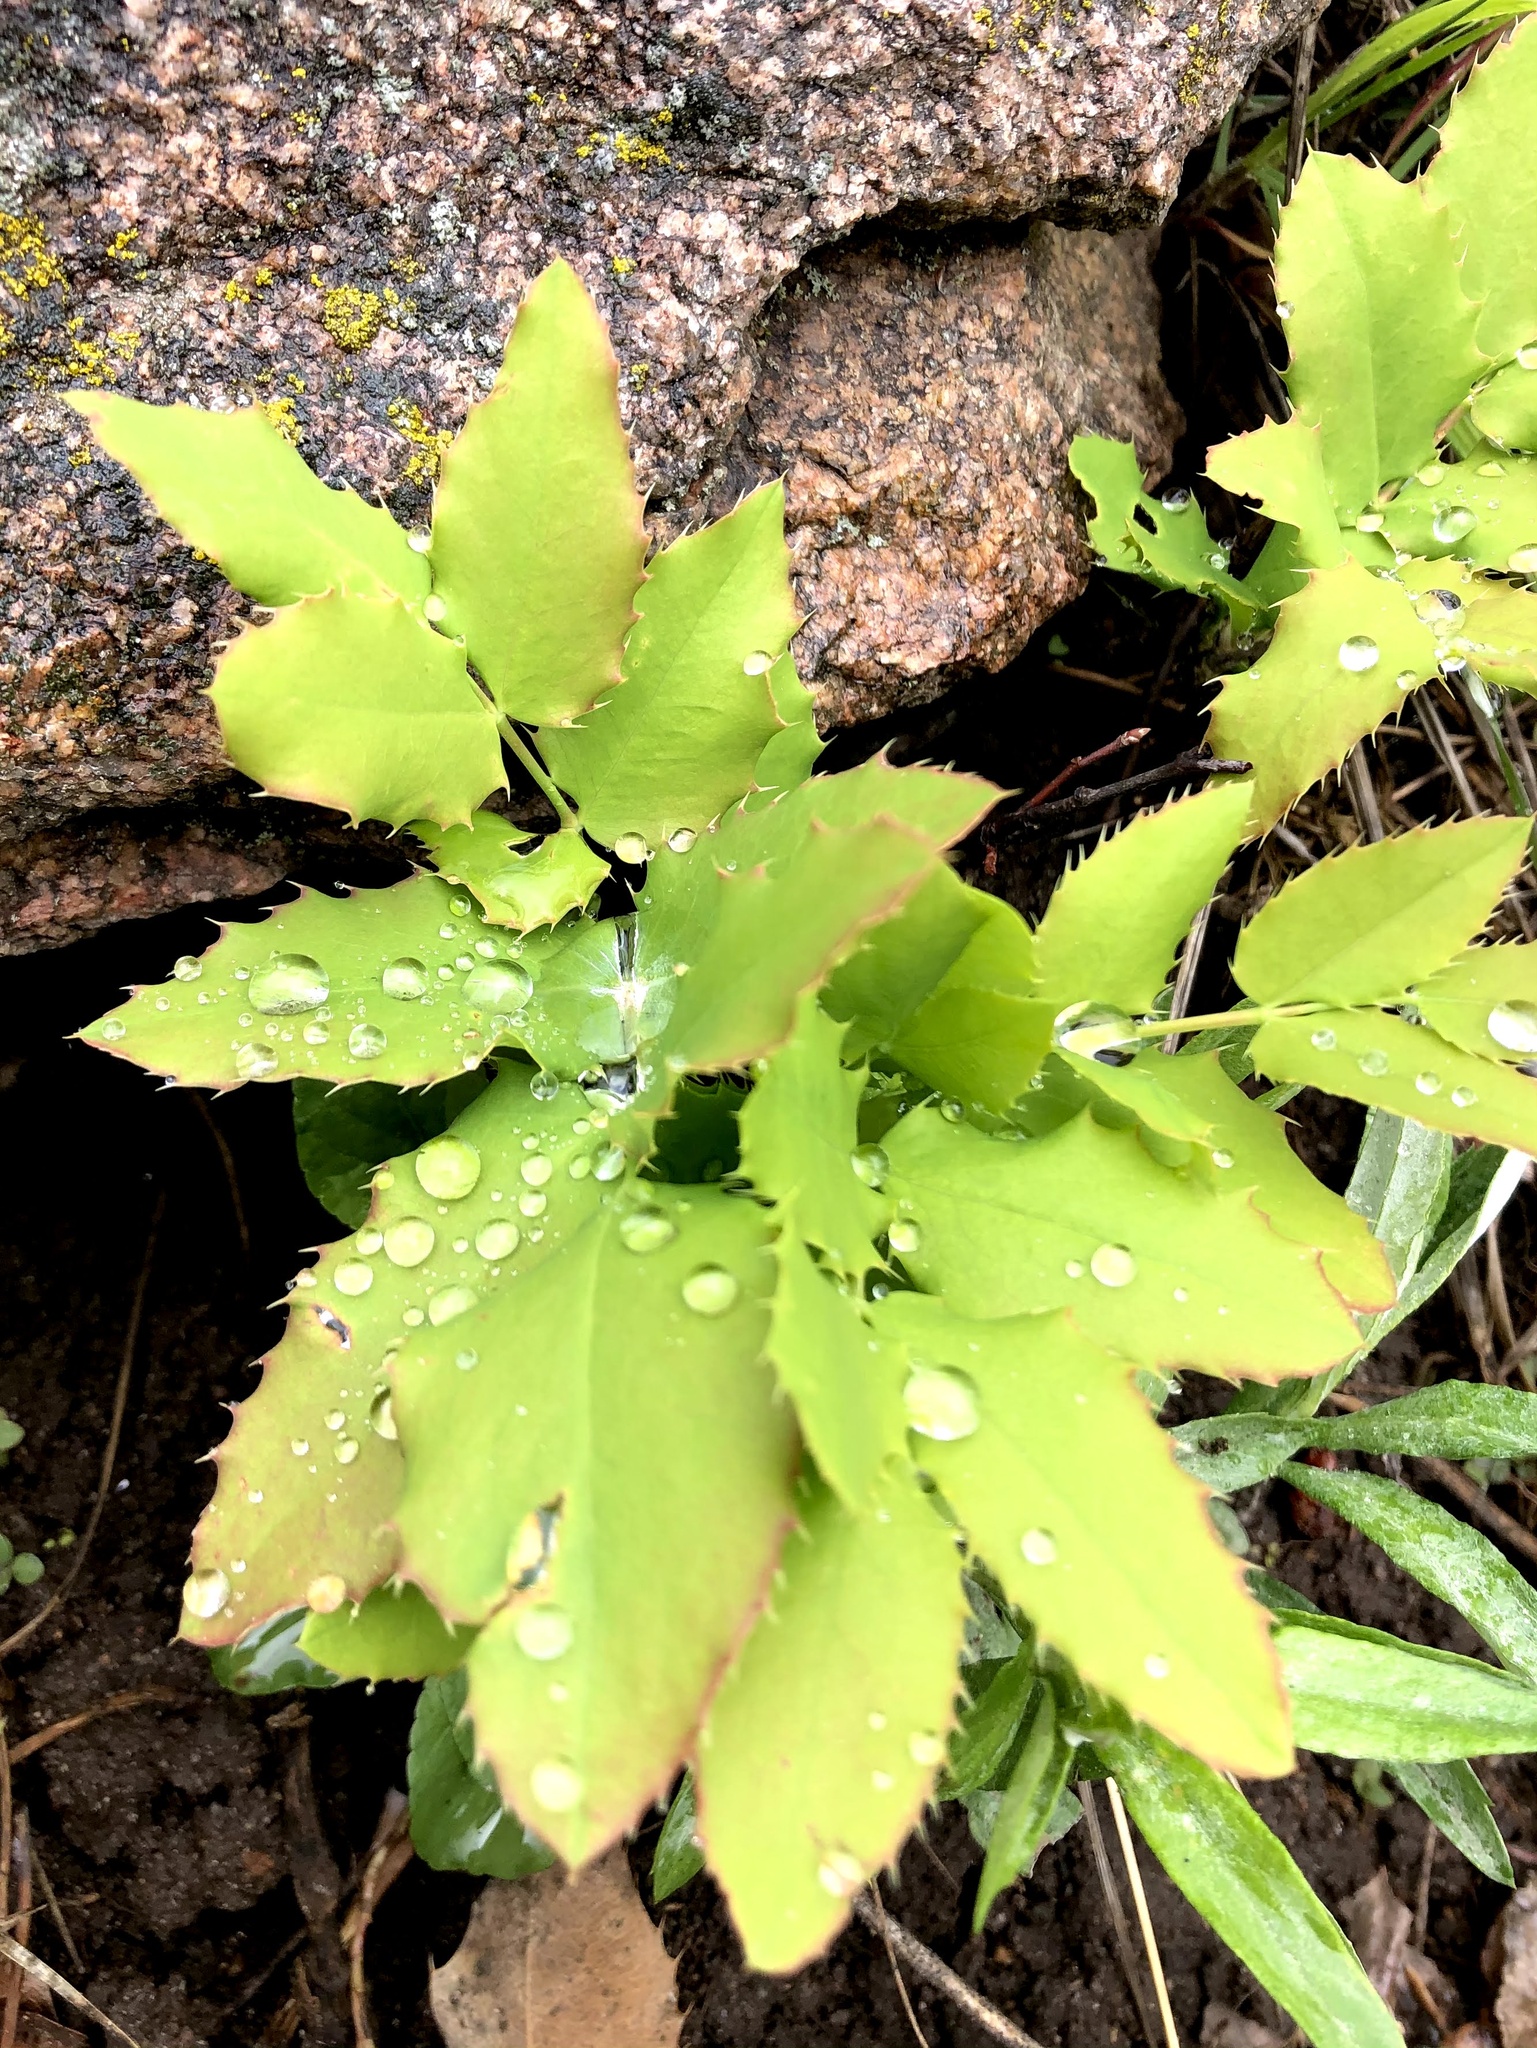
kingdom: Plantae
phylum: Tracheophyta
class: Magnoliopsida
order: Ranunculales
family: Berberidaceae
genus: Mahonia
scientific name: Mahonia repens
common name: Creeping oregon-grape
